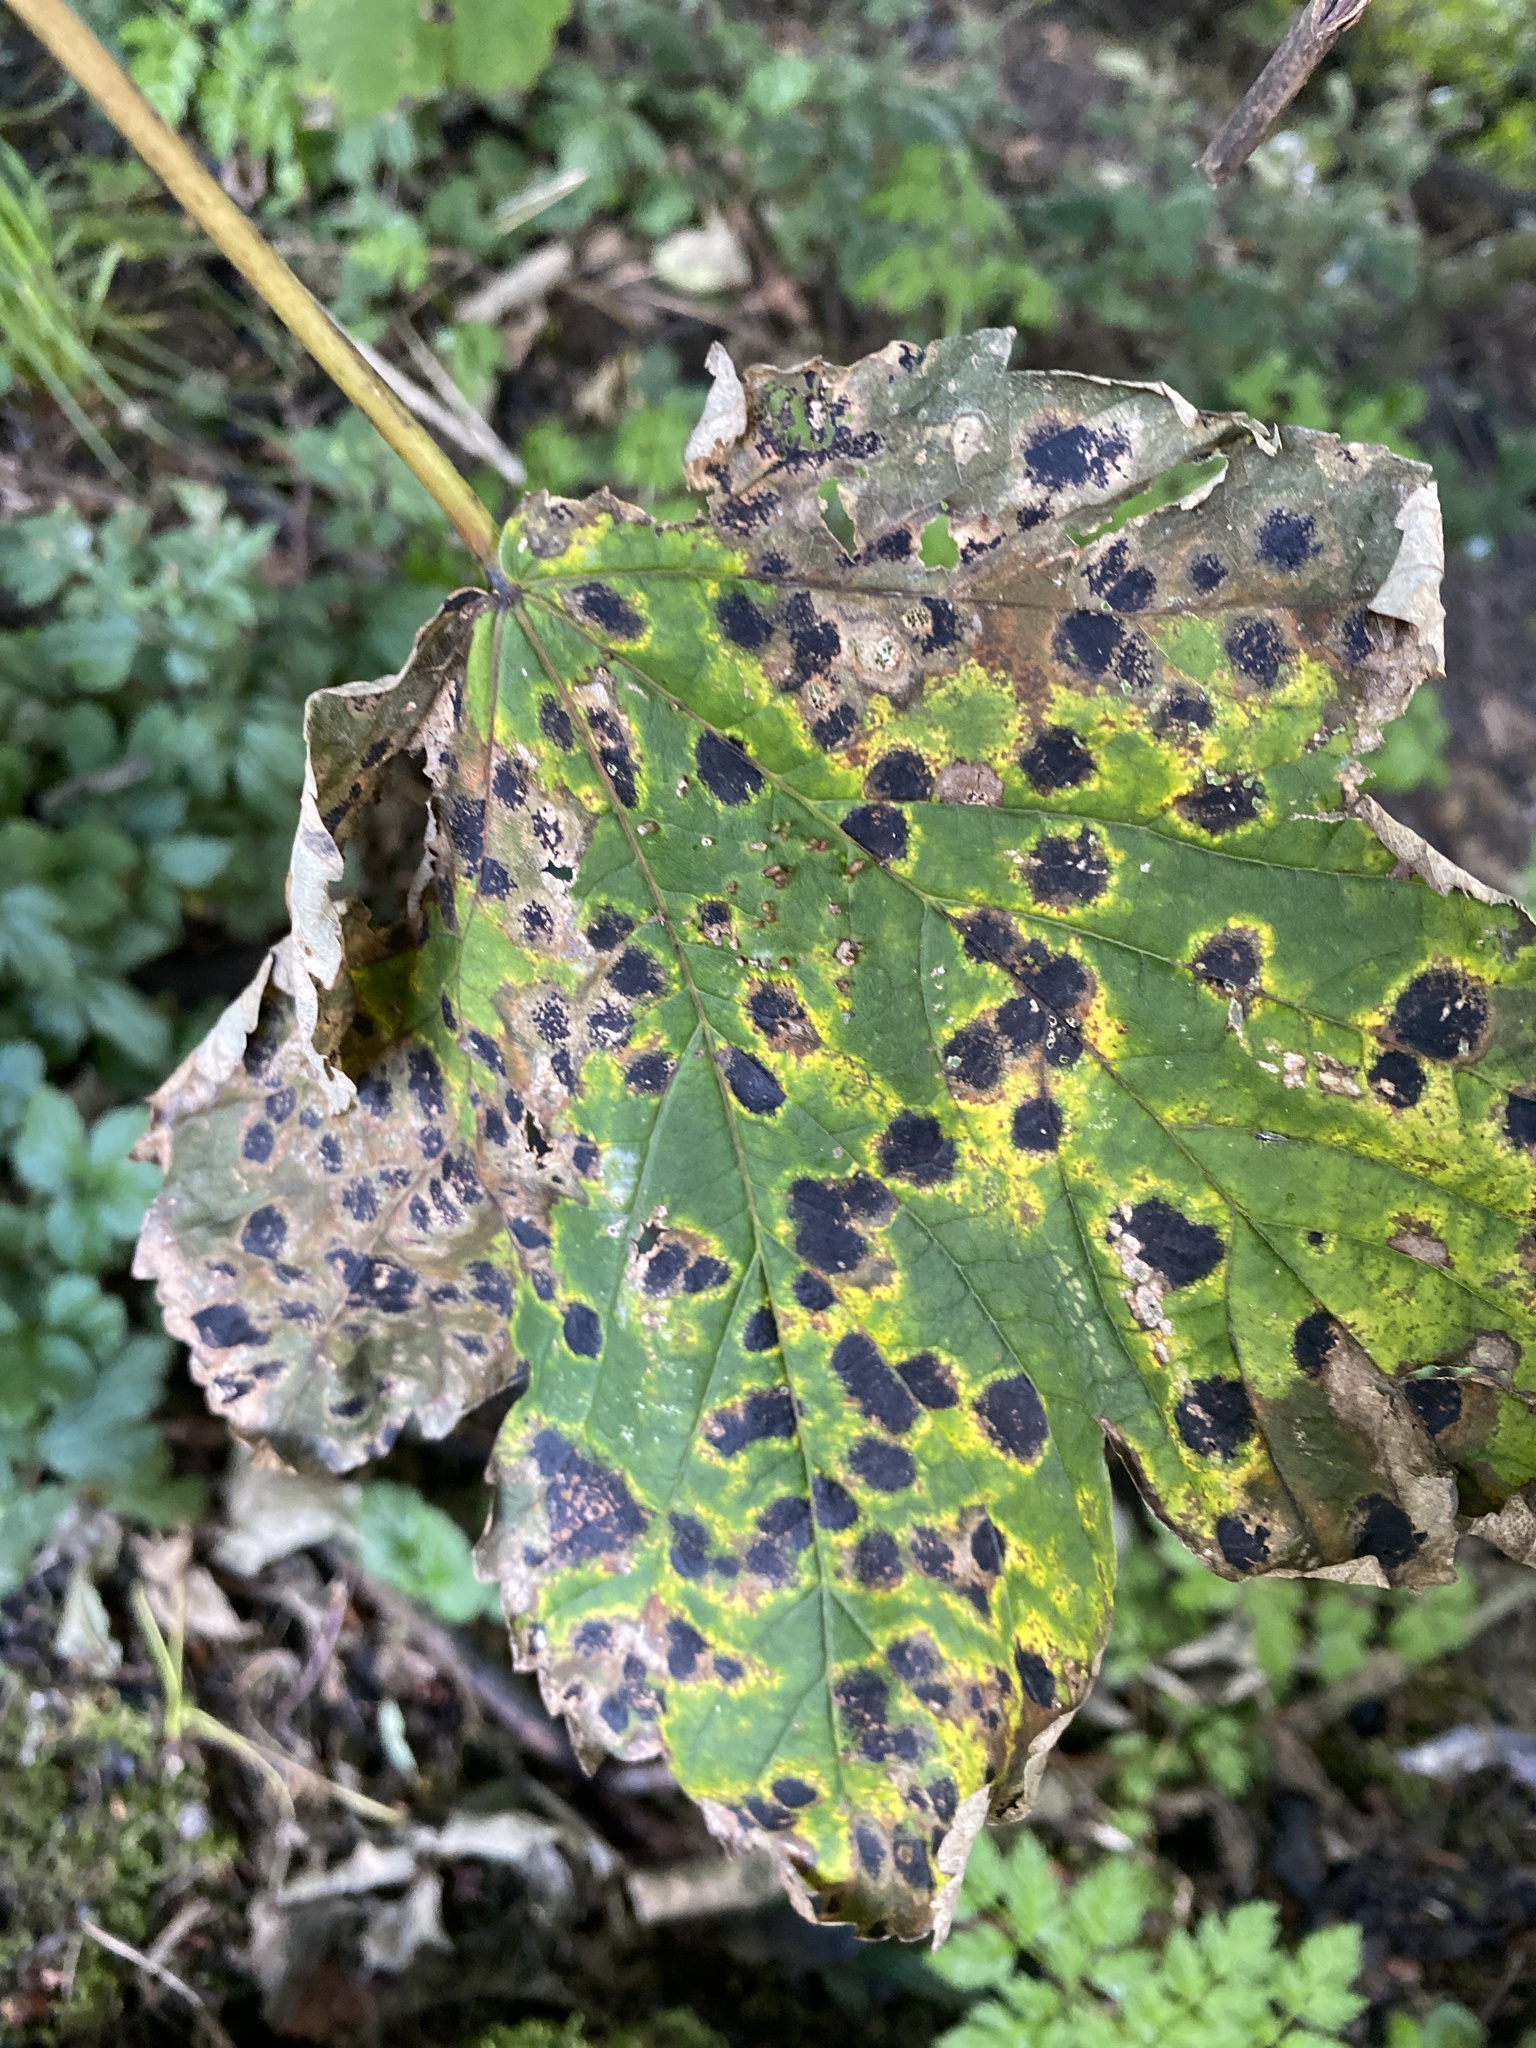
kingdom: Fungi
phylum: Ascomycota
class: Leotiomycetes
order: Rhytismatales
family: Rhytismataceae
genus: Rhytisma
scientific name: Rhytisma acerinum
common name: European tar spot
